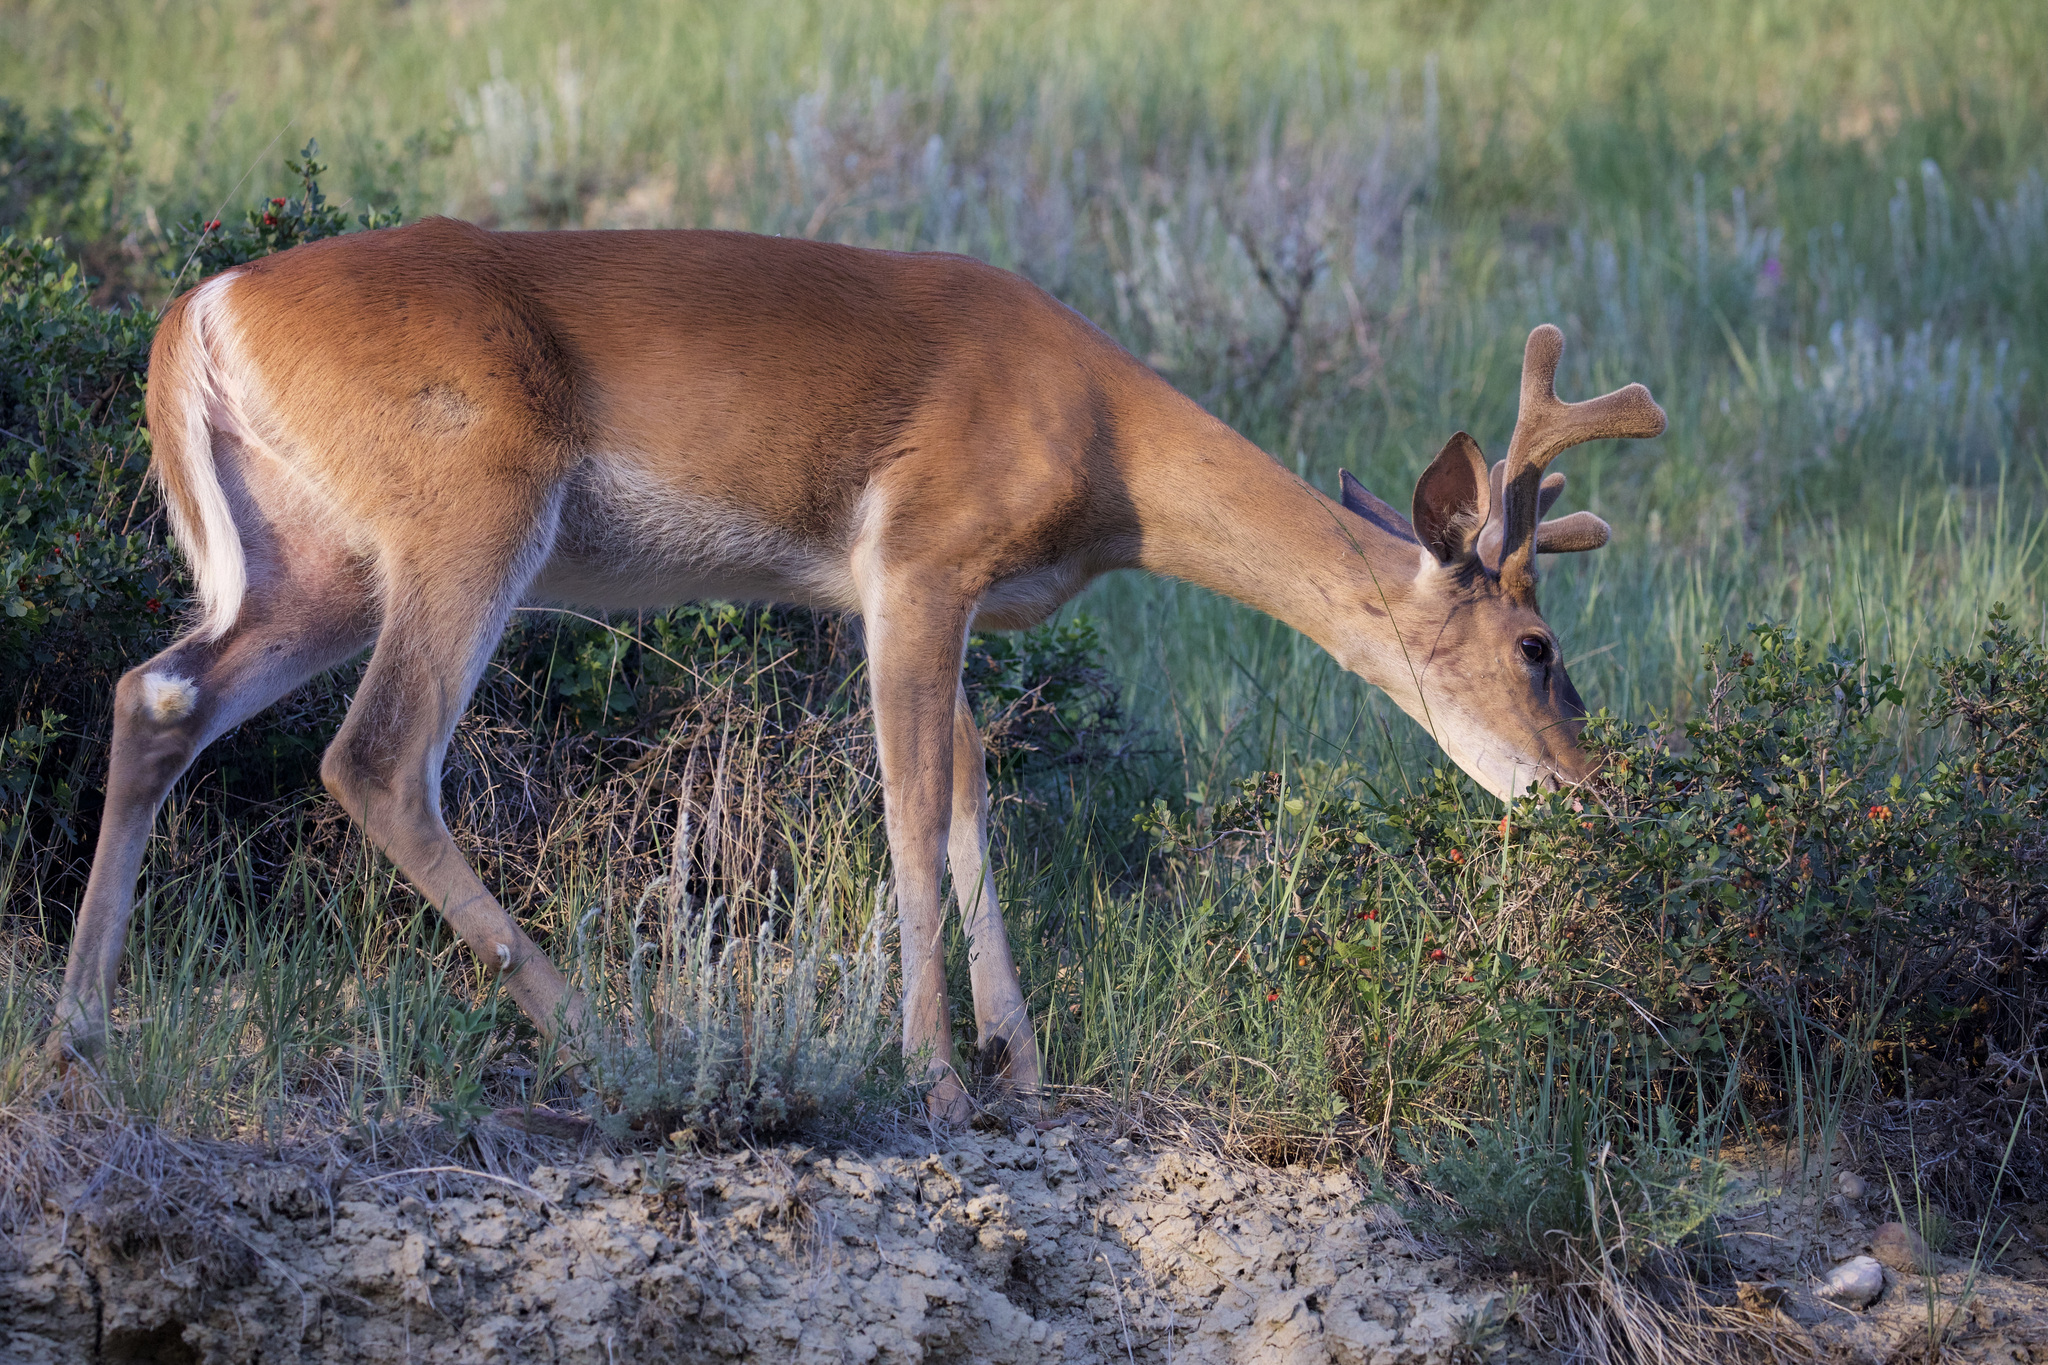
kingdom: Animalia
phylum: Chordata
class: Mammalia
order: Artiodactyla
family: Cervidae
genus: Odocoileus
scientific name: Odocoileus virginianus
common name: White-tailed deer
